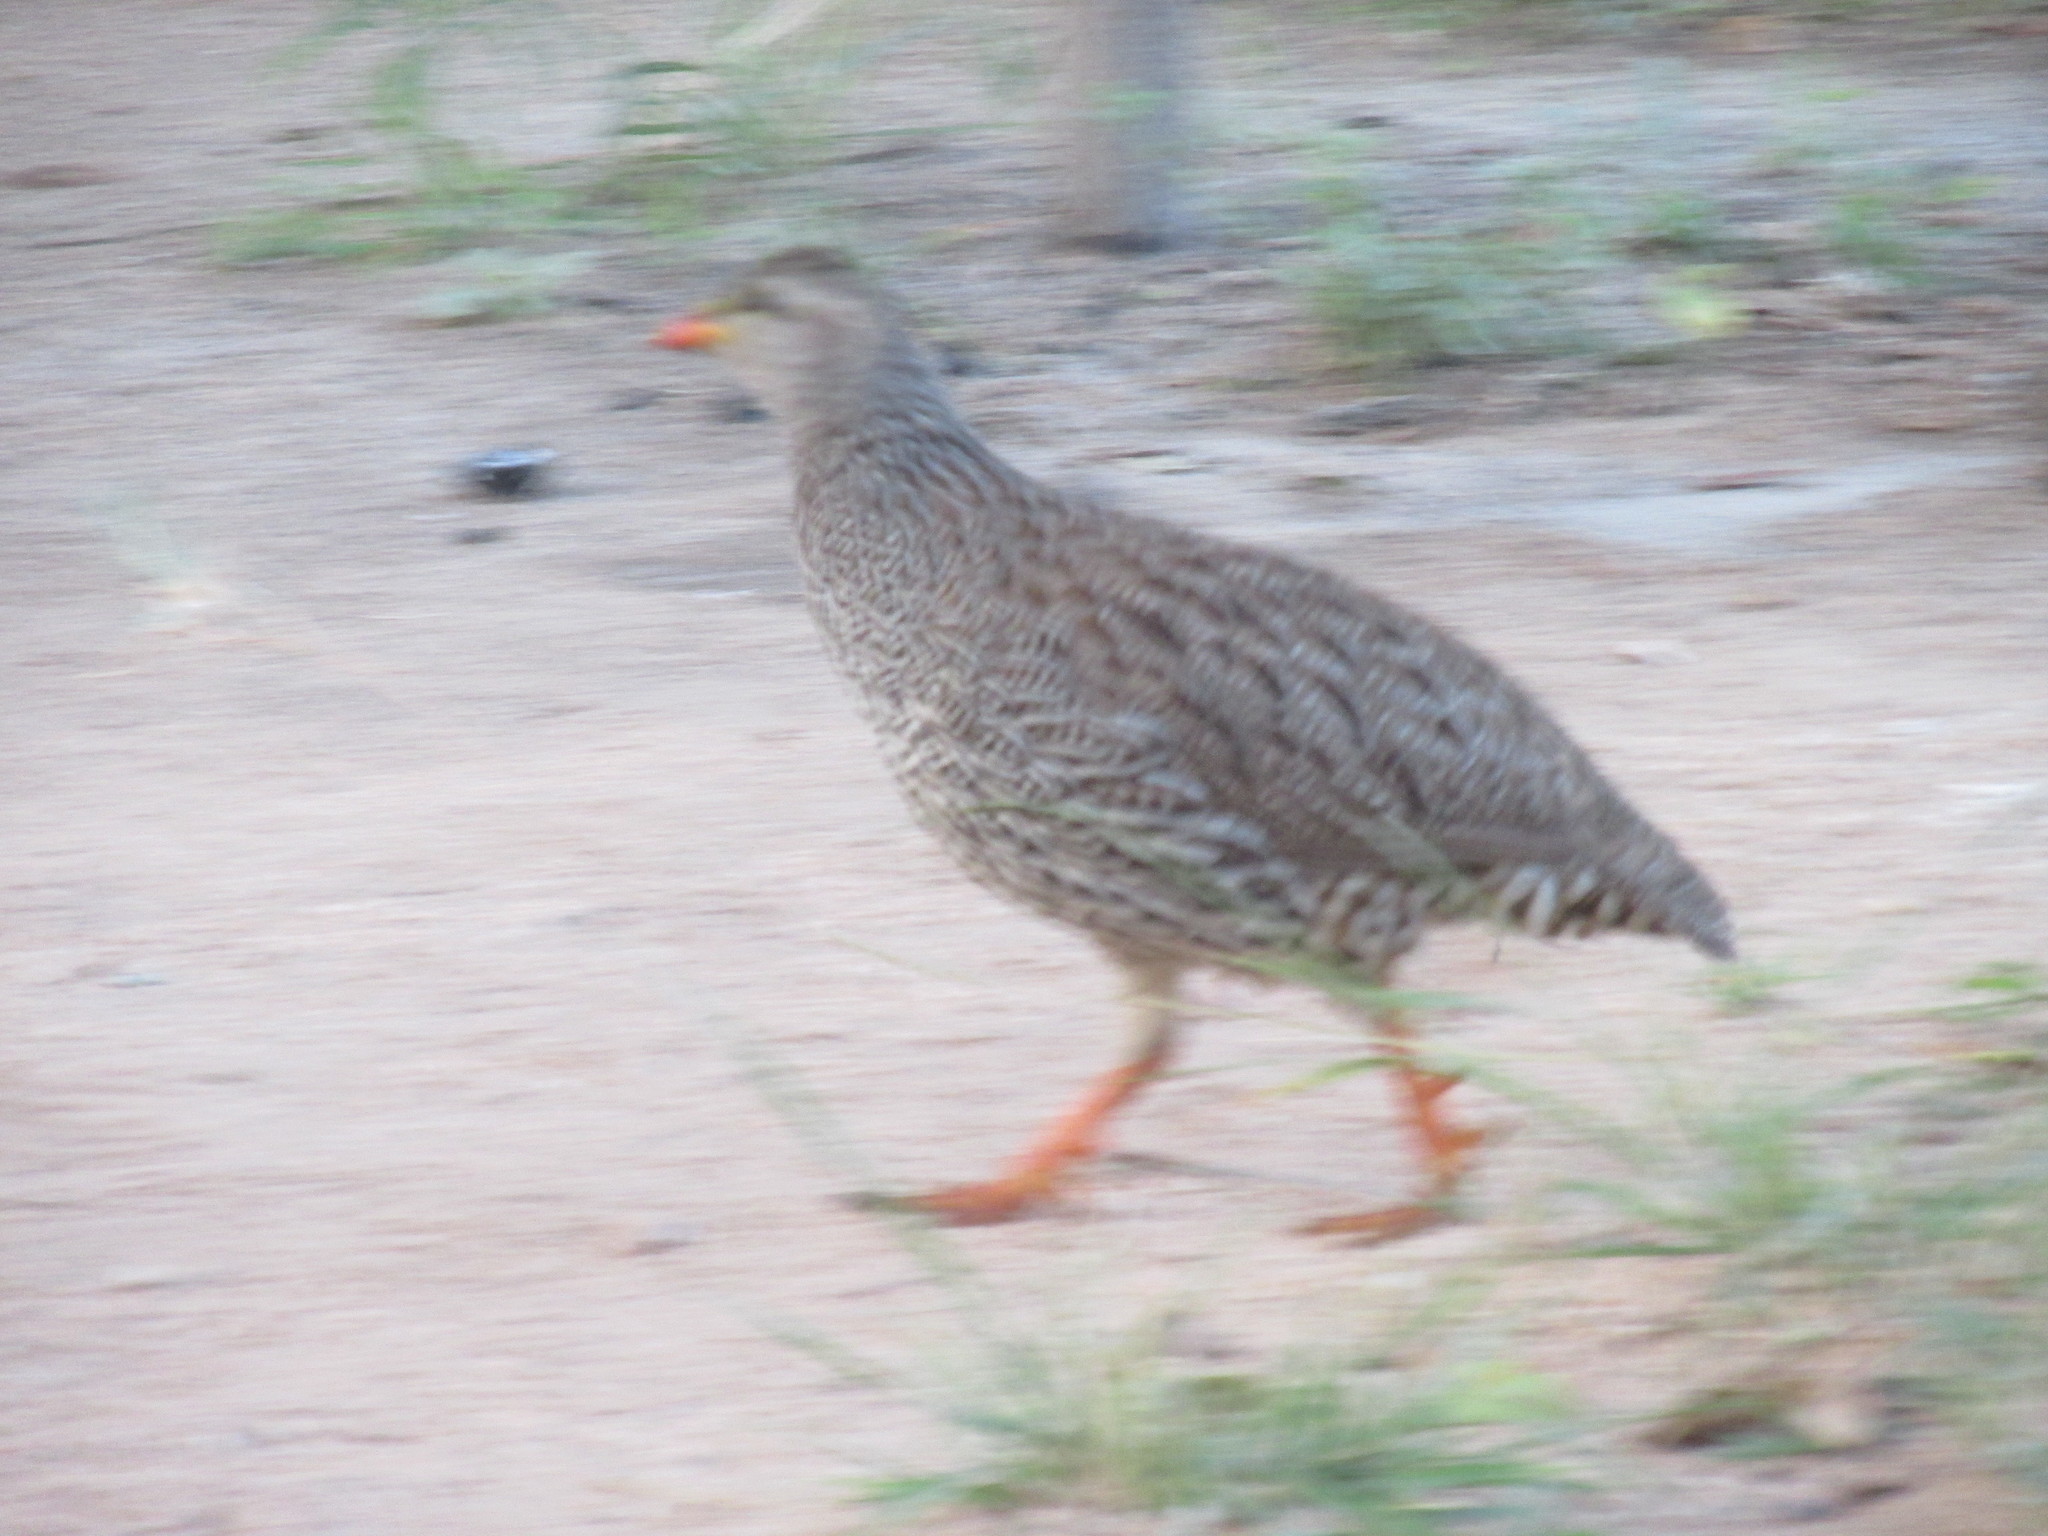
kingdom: Animalia
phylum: Chordata
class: Aves
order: Galliformes
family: Phasianidae
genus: Pternistis
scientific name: Pternistis natalensis
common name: Natal spurfowl
